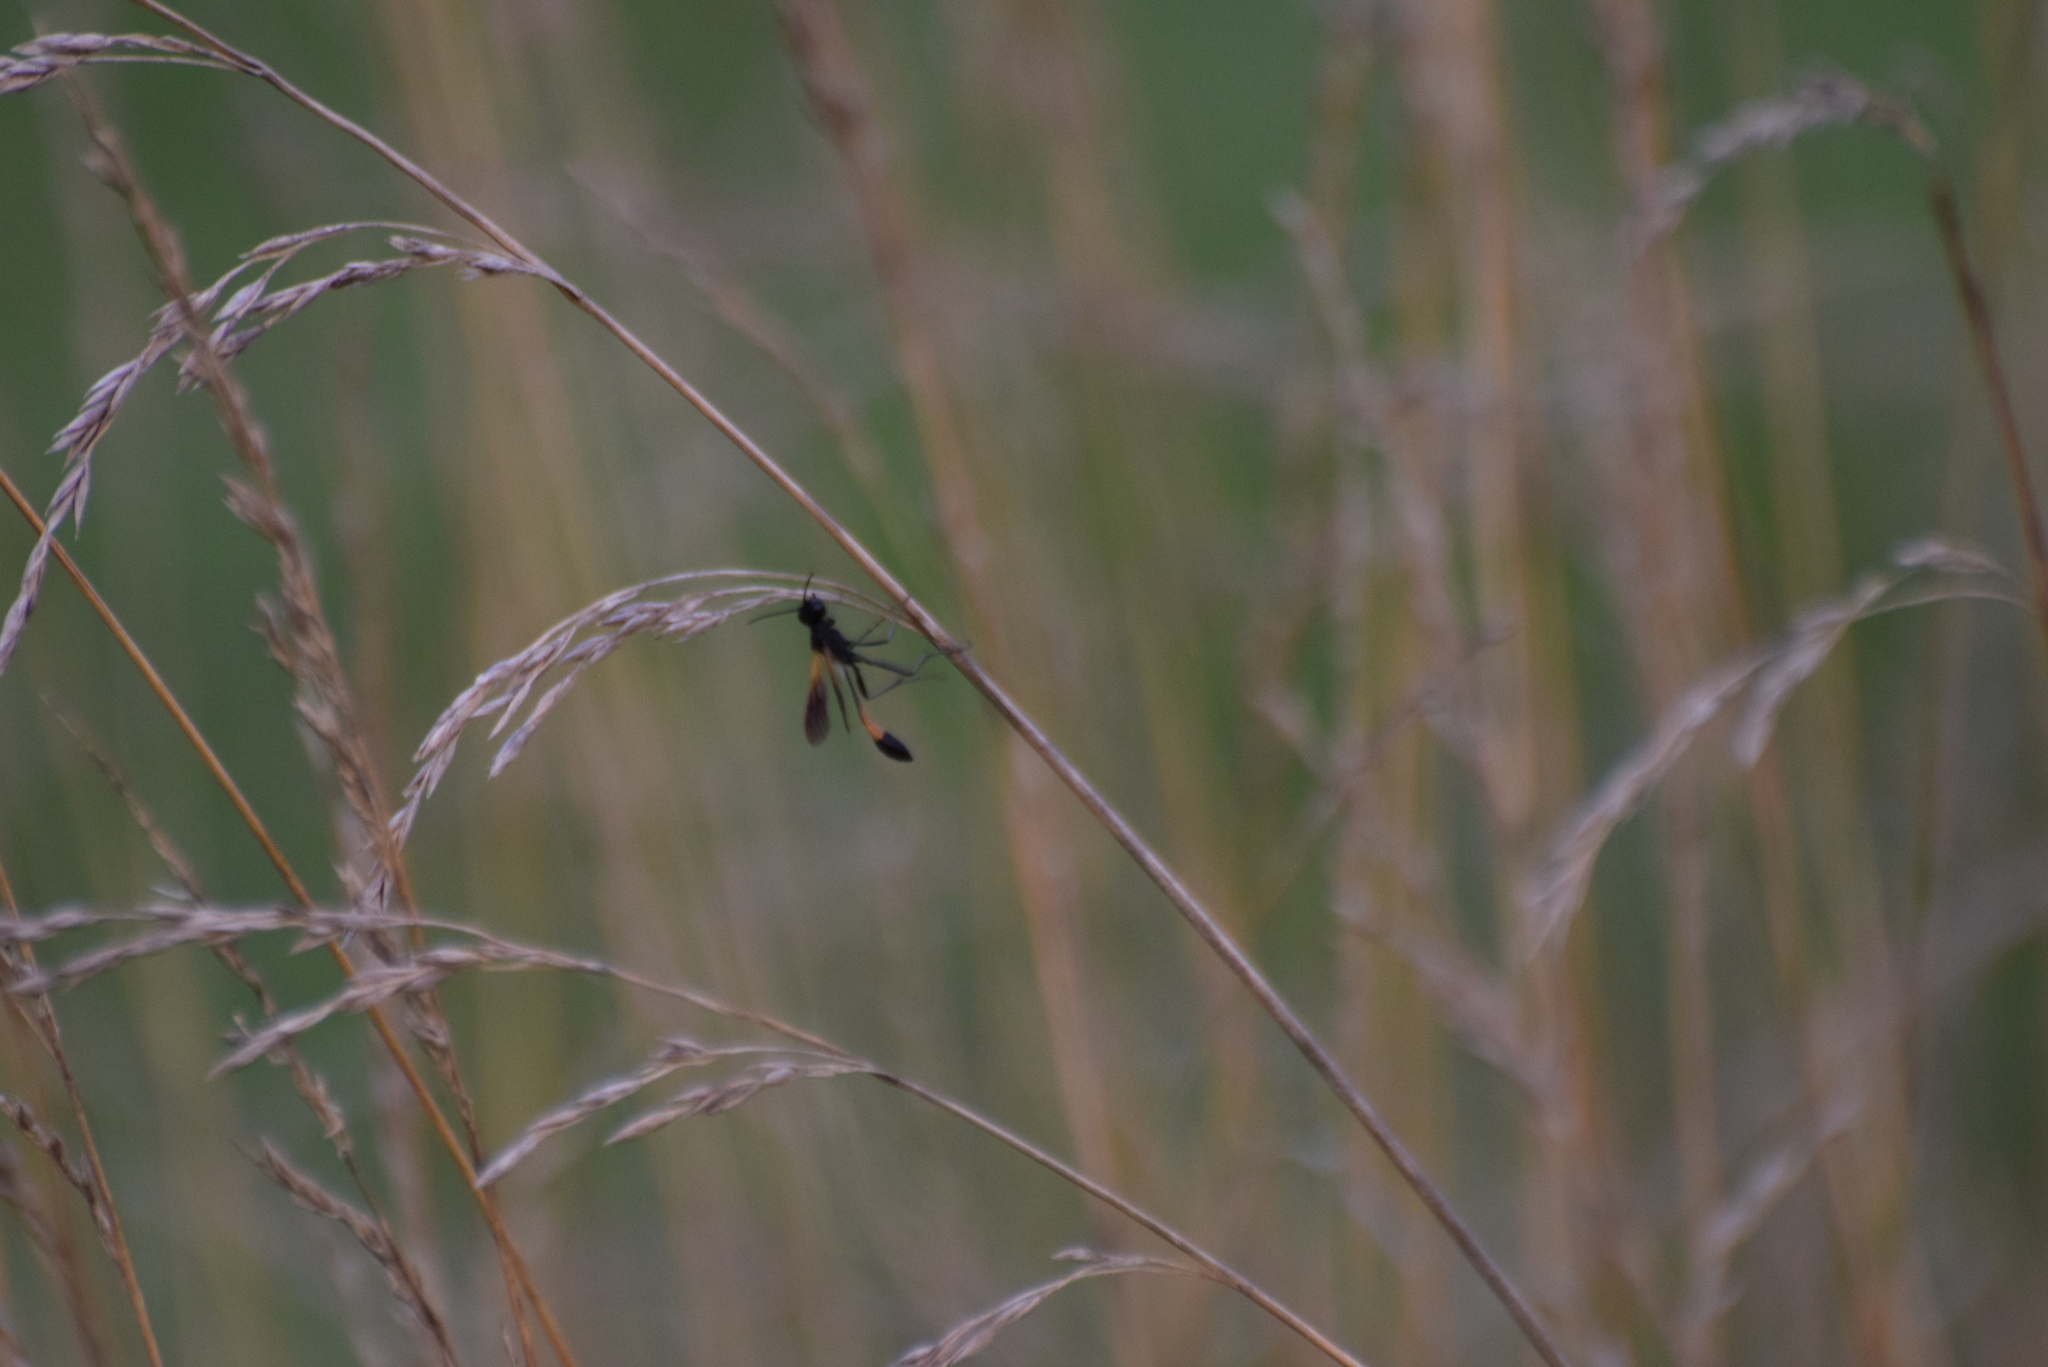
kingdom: Animalia
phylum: Arthropoda
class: Insecta
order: Hymenoptera
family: Sphecidae
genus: Ammophila
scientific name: Ammophila pictipennis
